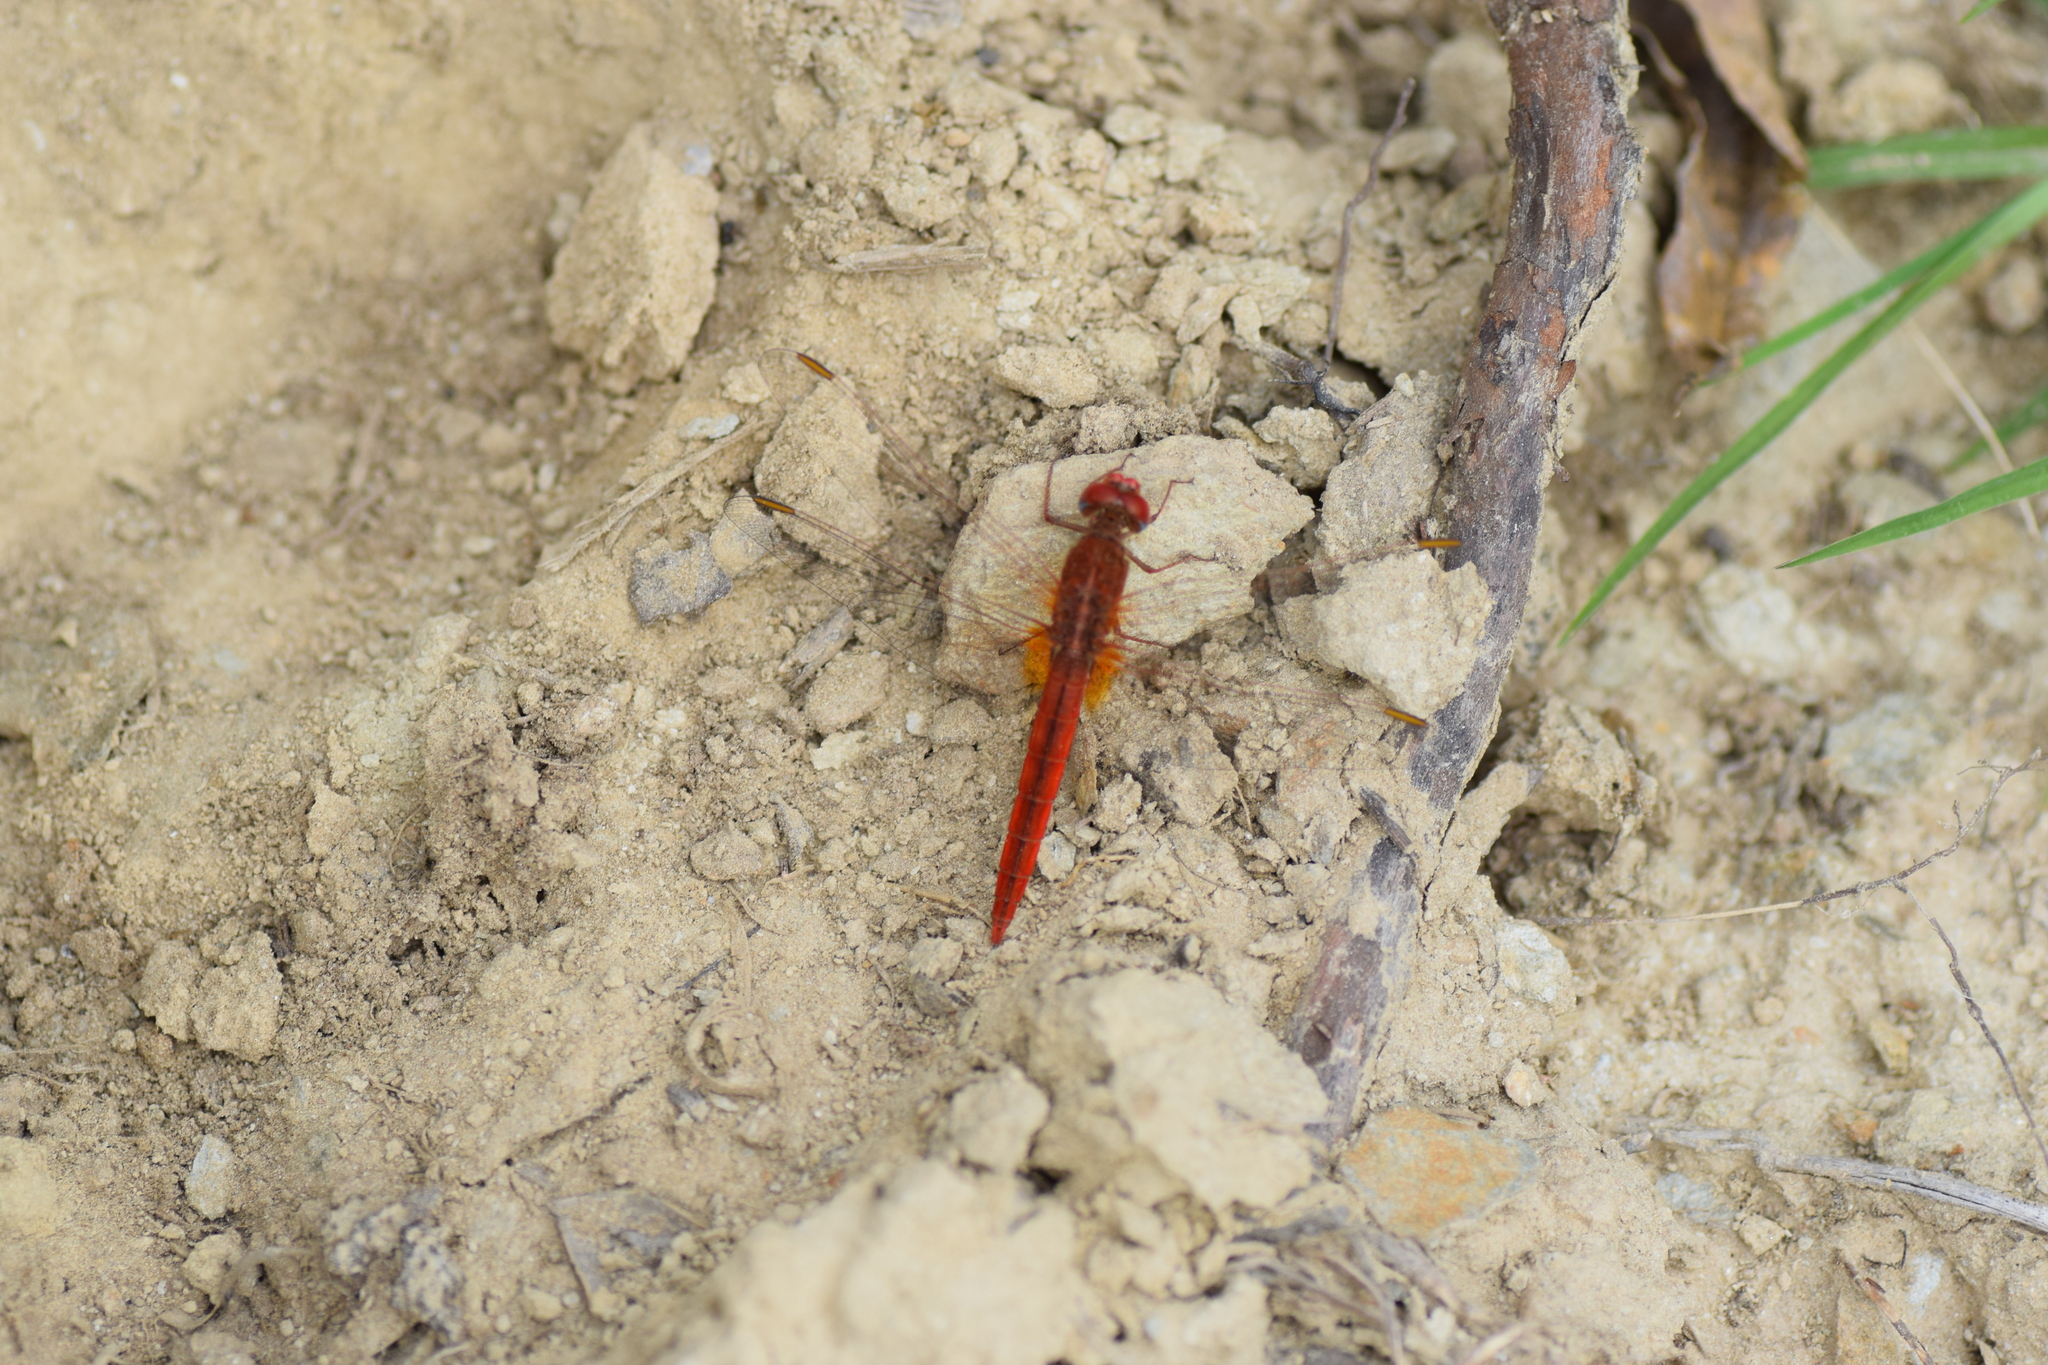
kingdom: Animalia
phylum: Arthropoda
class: Insecta
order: Odonata
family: Libellulidae
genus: Crocothemis
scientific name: Crocothemis servilia
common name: Scarlet skimmer
